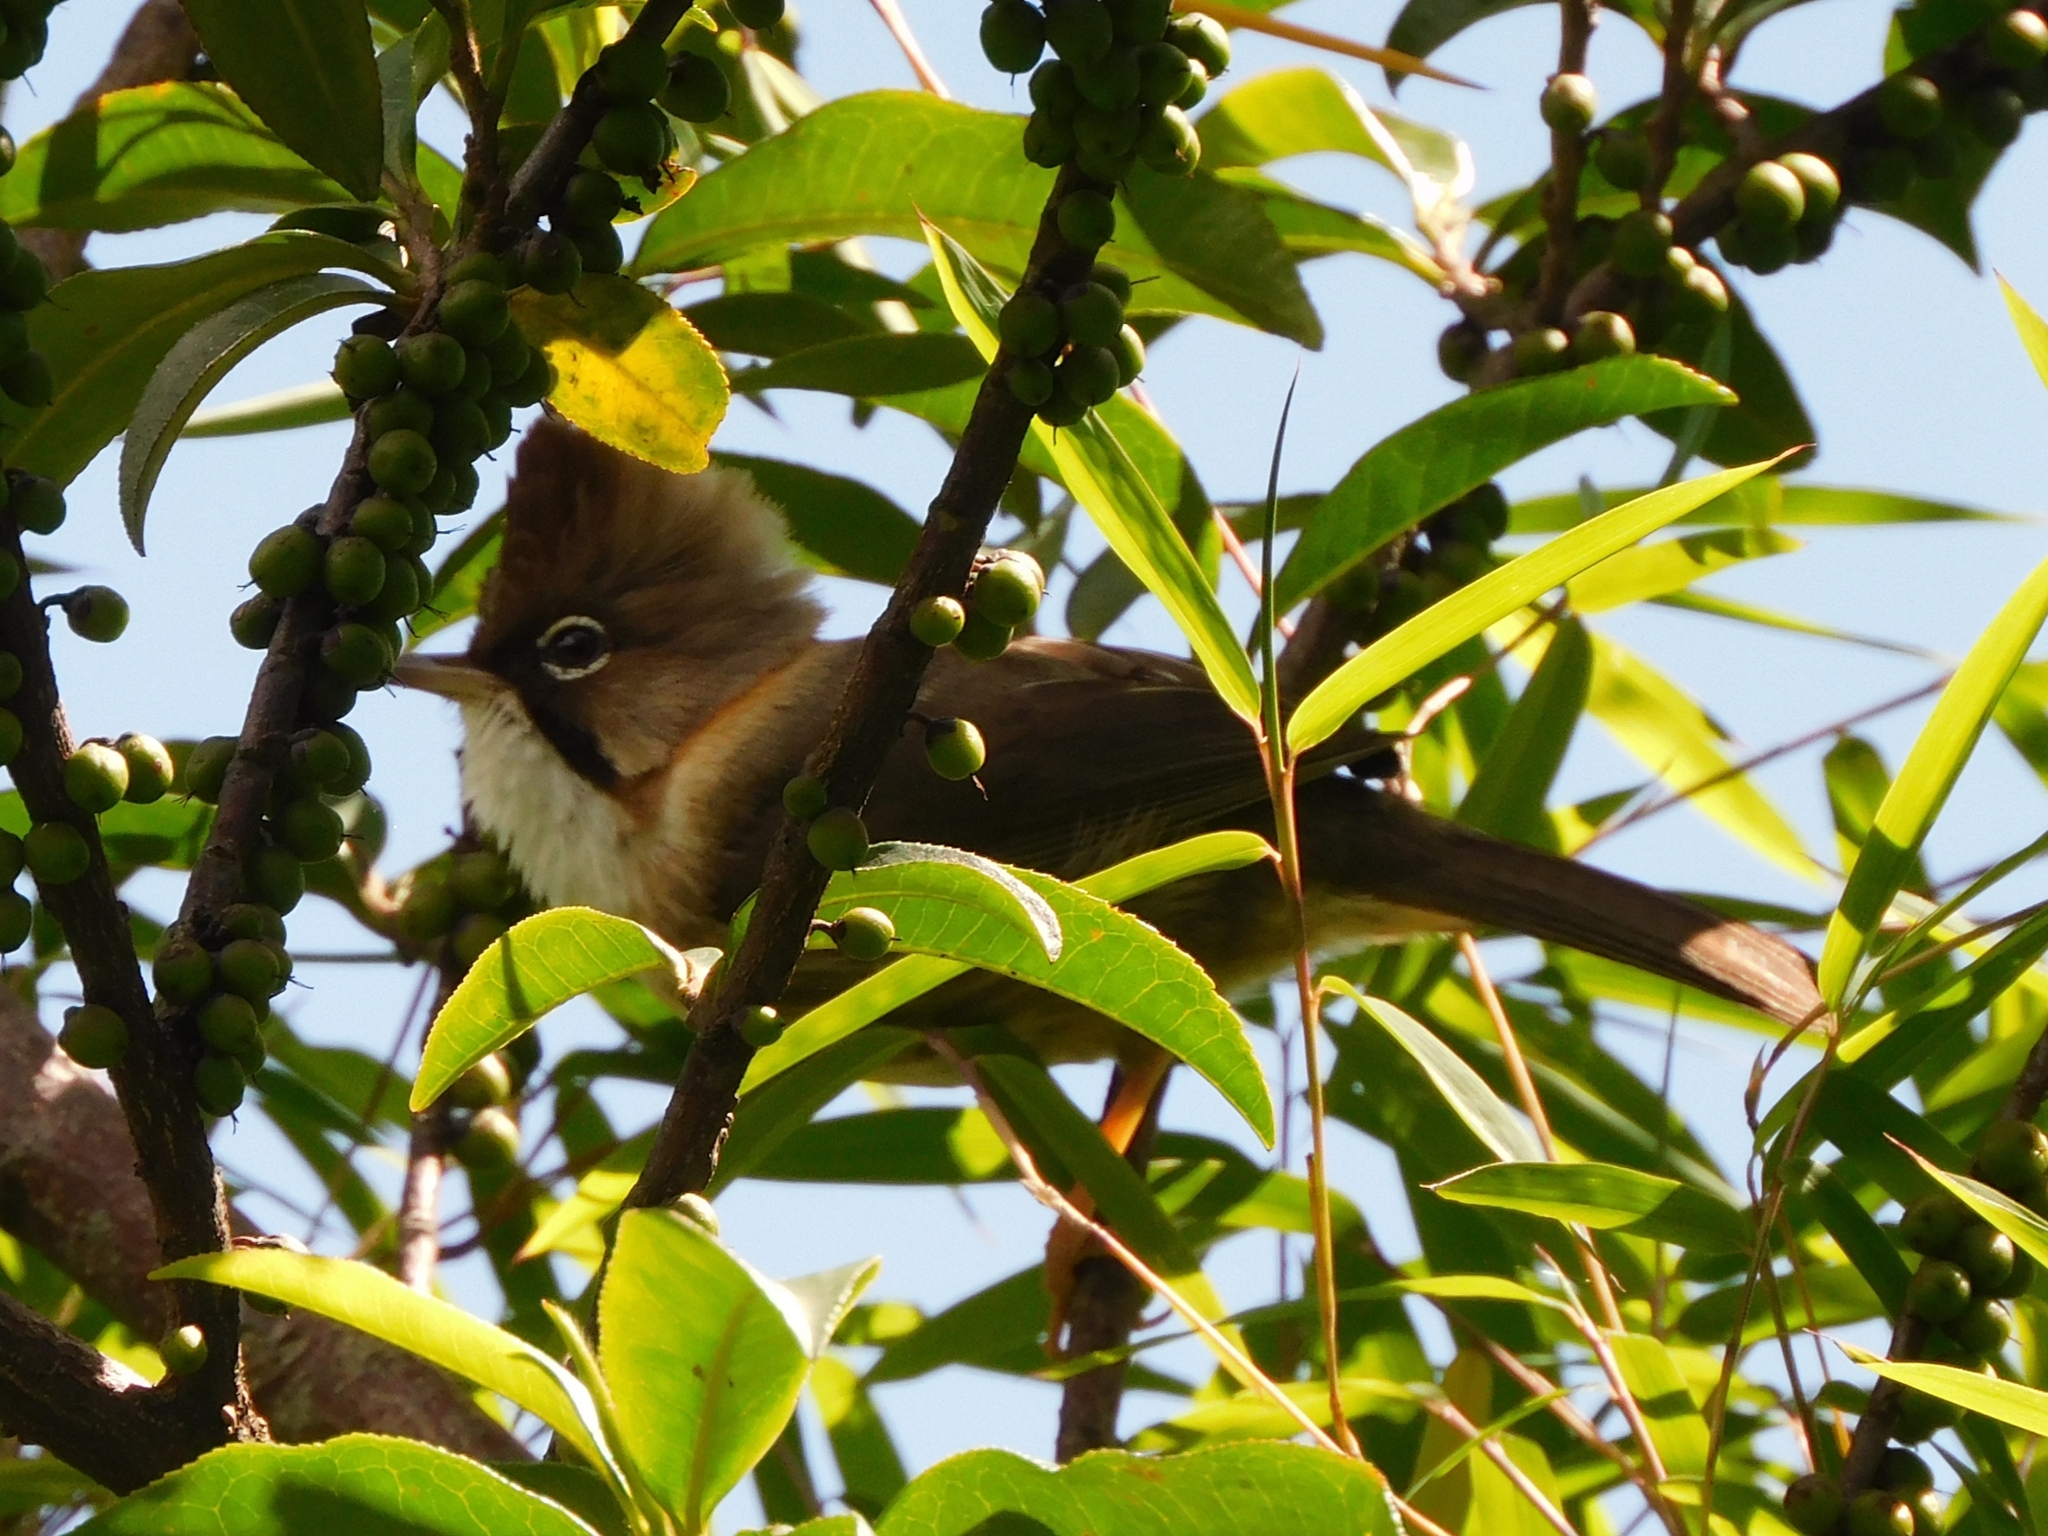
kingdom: Animalia
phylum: Chordata
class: Aves
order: Passeriformes
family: Zosteropidae
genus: Yuhina
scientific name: Yuhina flavicollis
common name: Whiskered yuhina
